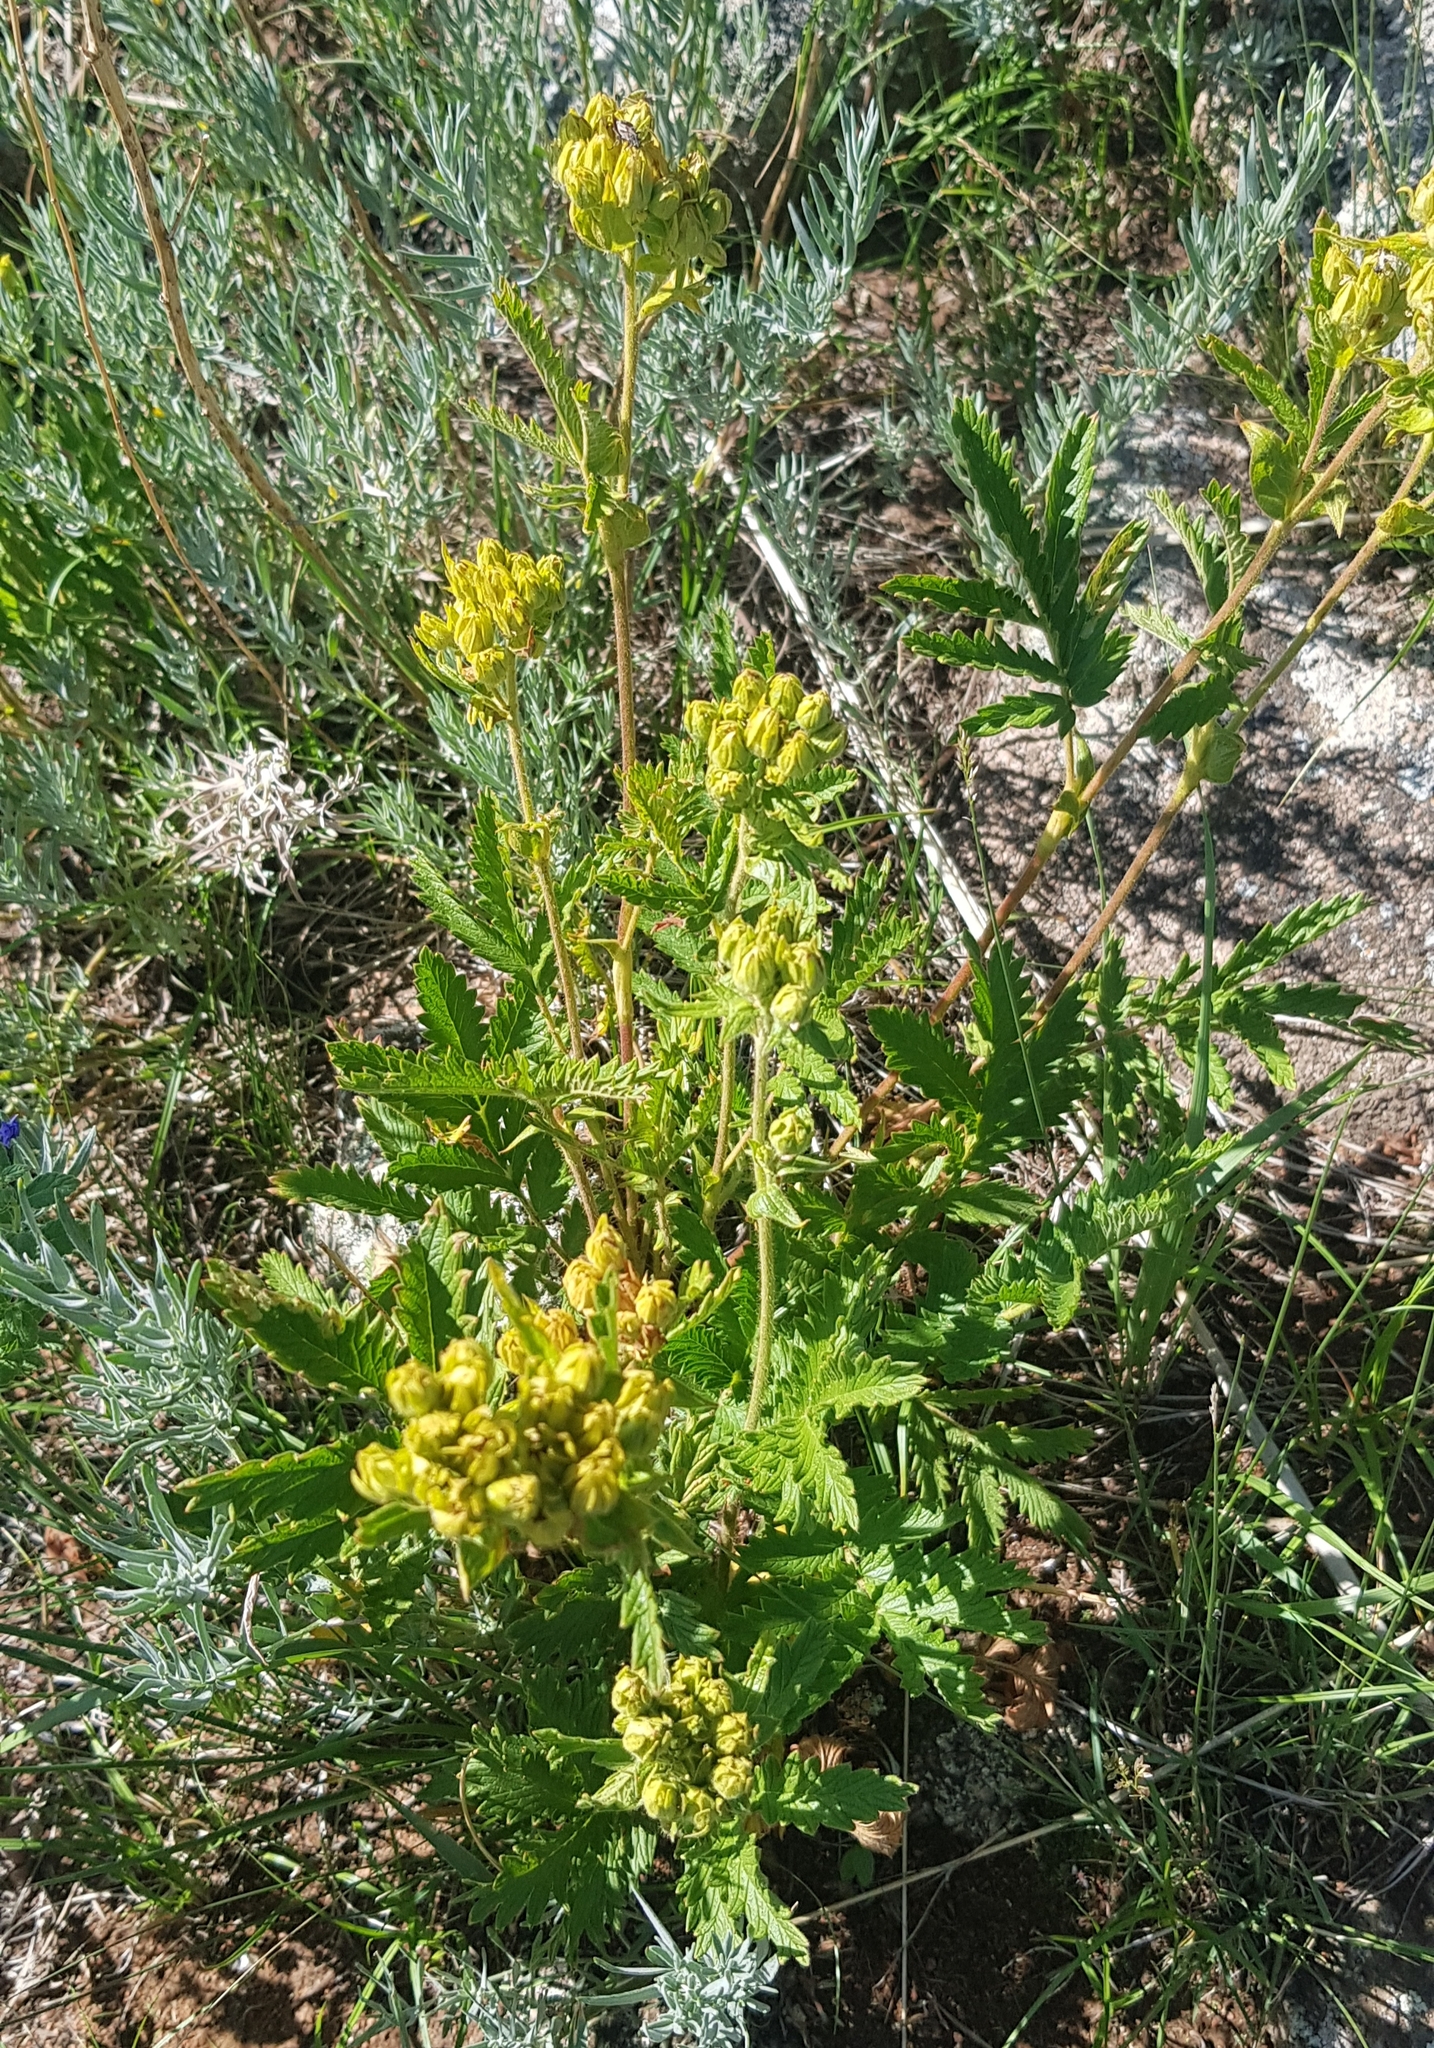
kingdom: Plantae
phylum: Tracheophyta
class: Magnoliopsida
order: Rosales
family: Rosaceae
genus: Potentilla
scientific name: Potentilla tanacetifolia
